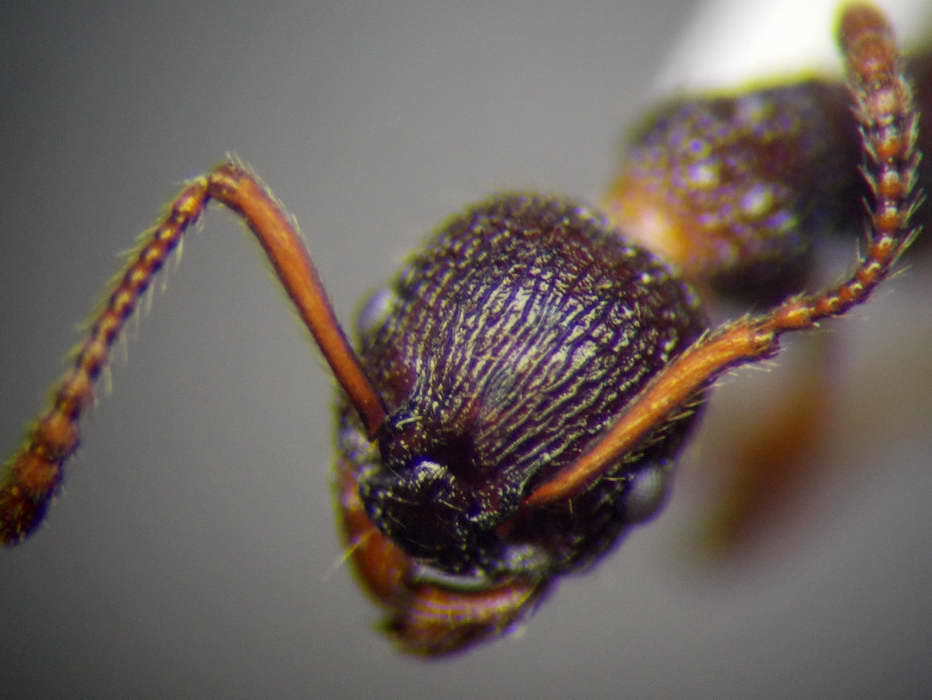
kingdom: Animalia
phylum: Arthropoda
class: Insecta
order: Hymenoptera
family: Formicidae
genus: Myrmica
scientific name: Myrmica bergi
